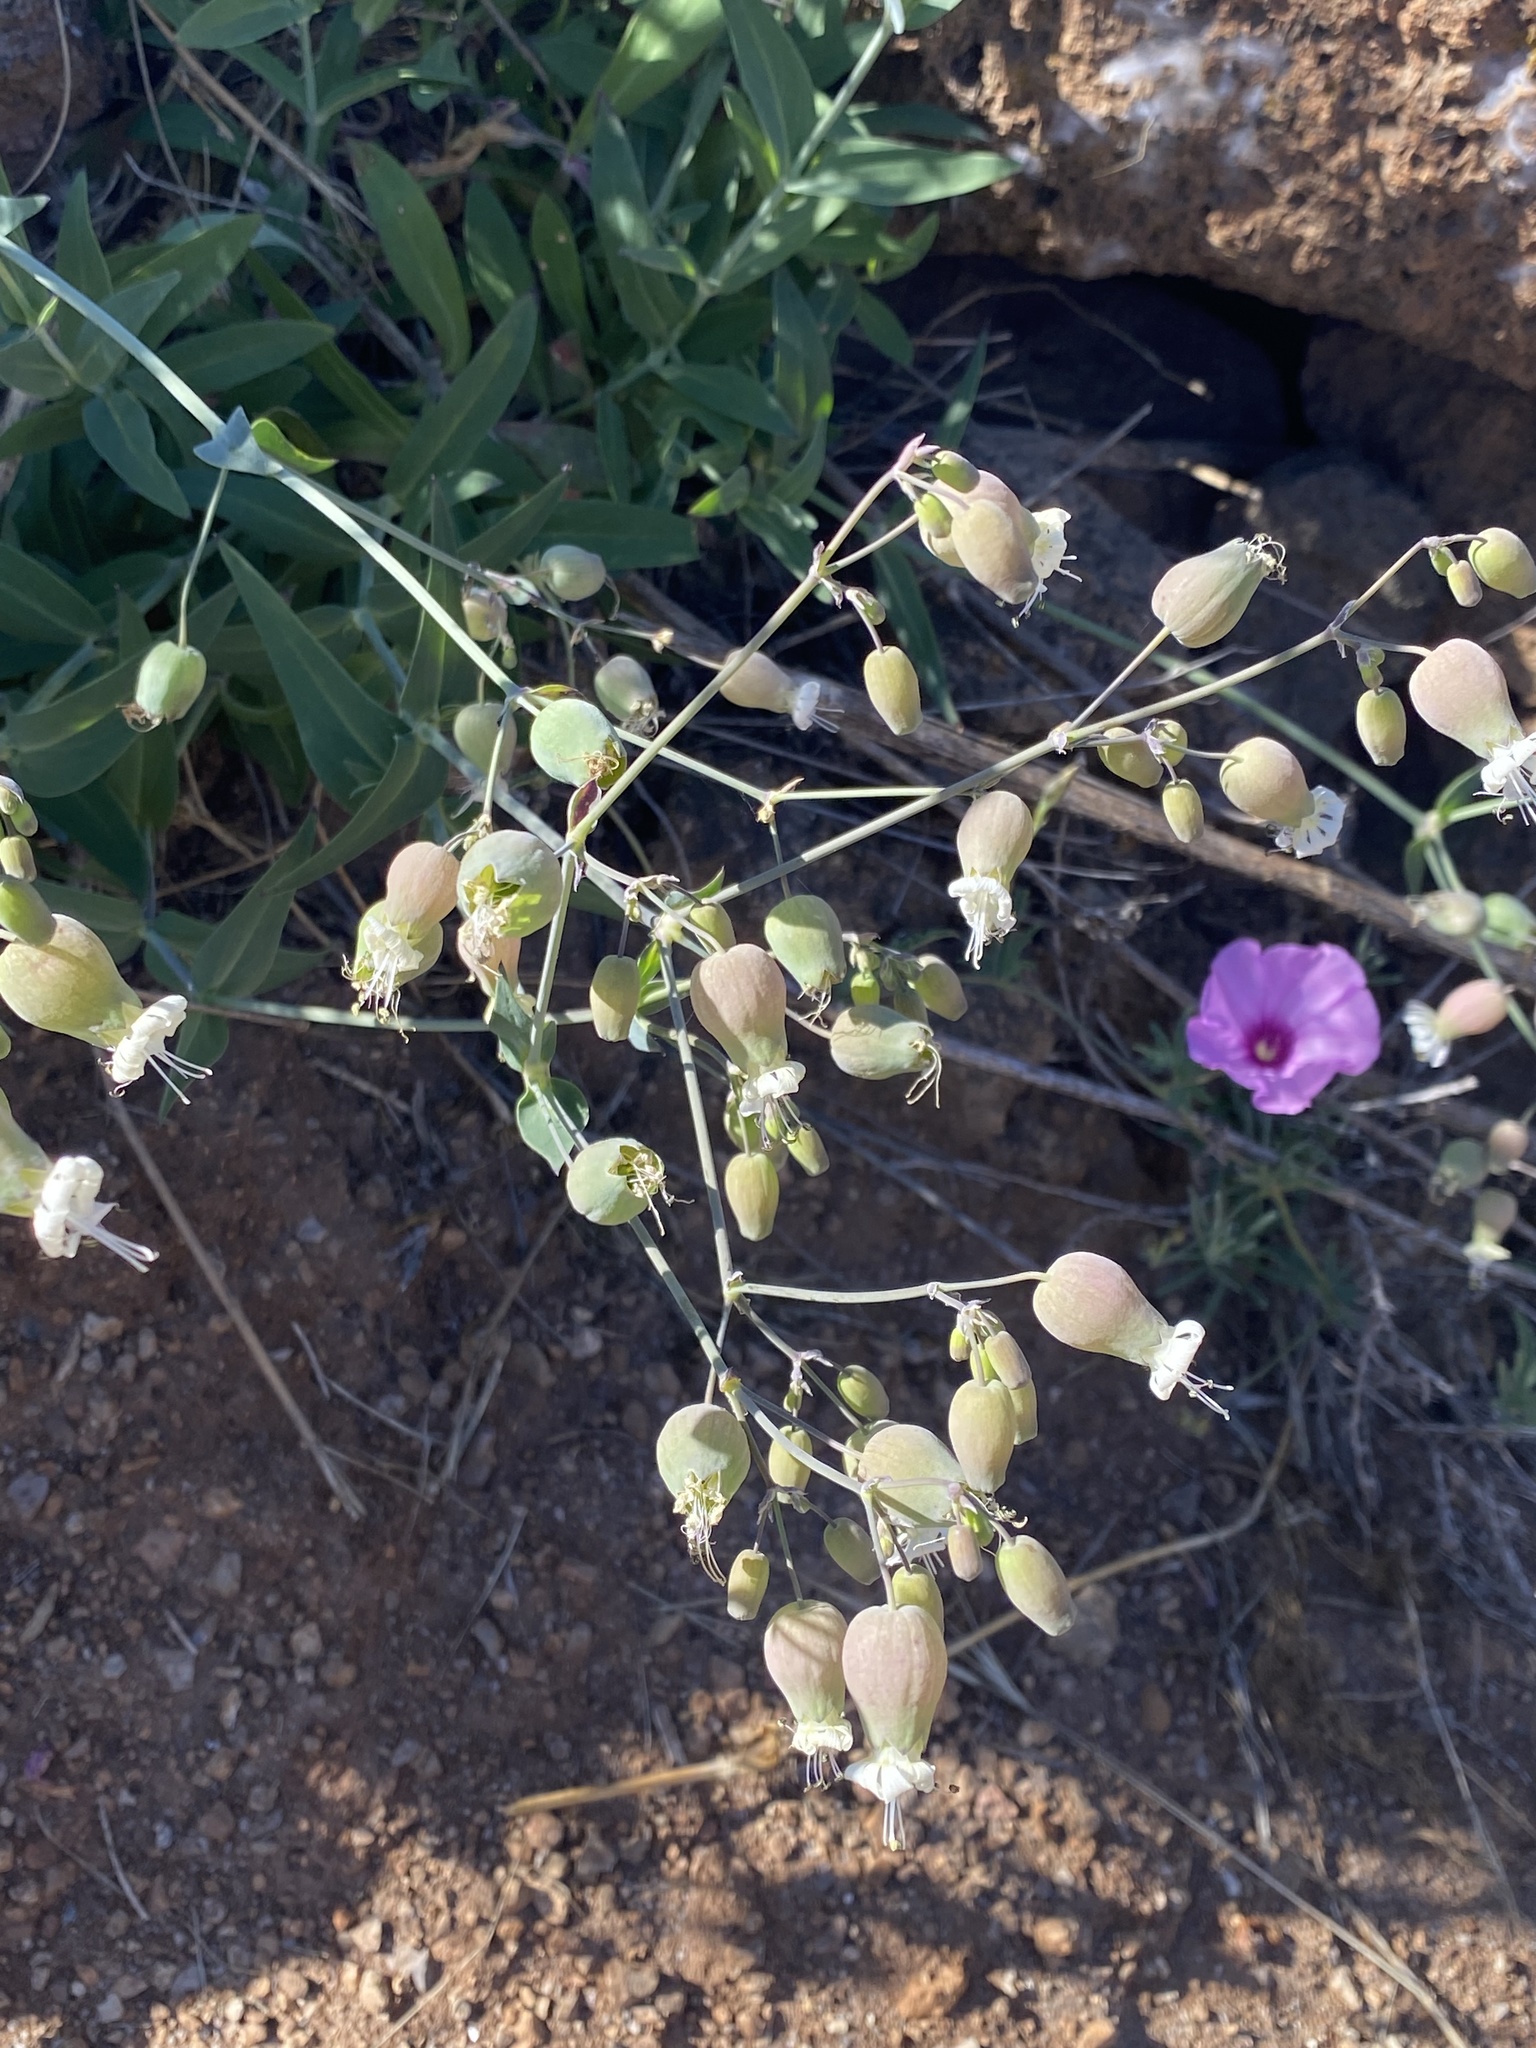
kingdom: Plantae
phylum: Tracheophyta
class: Magnoliopsida
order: Caryophyllales
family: Caryophyllaceae
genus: Silene
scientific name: Silene vulgaris
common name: Bladder campion
